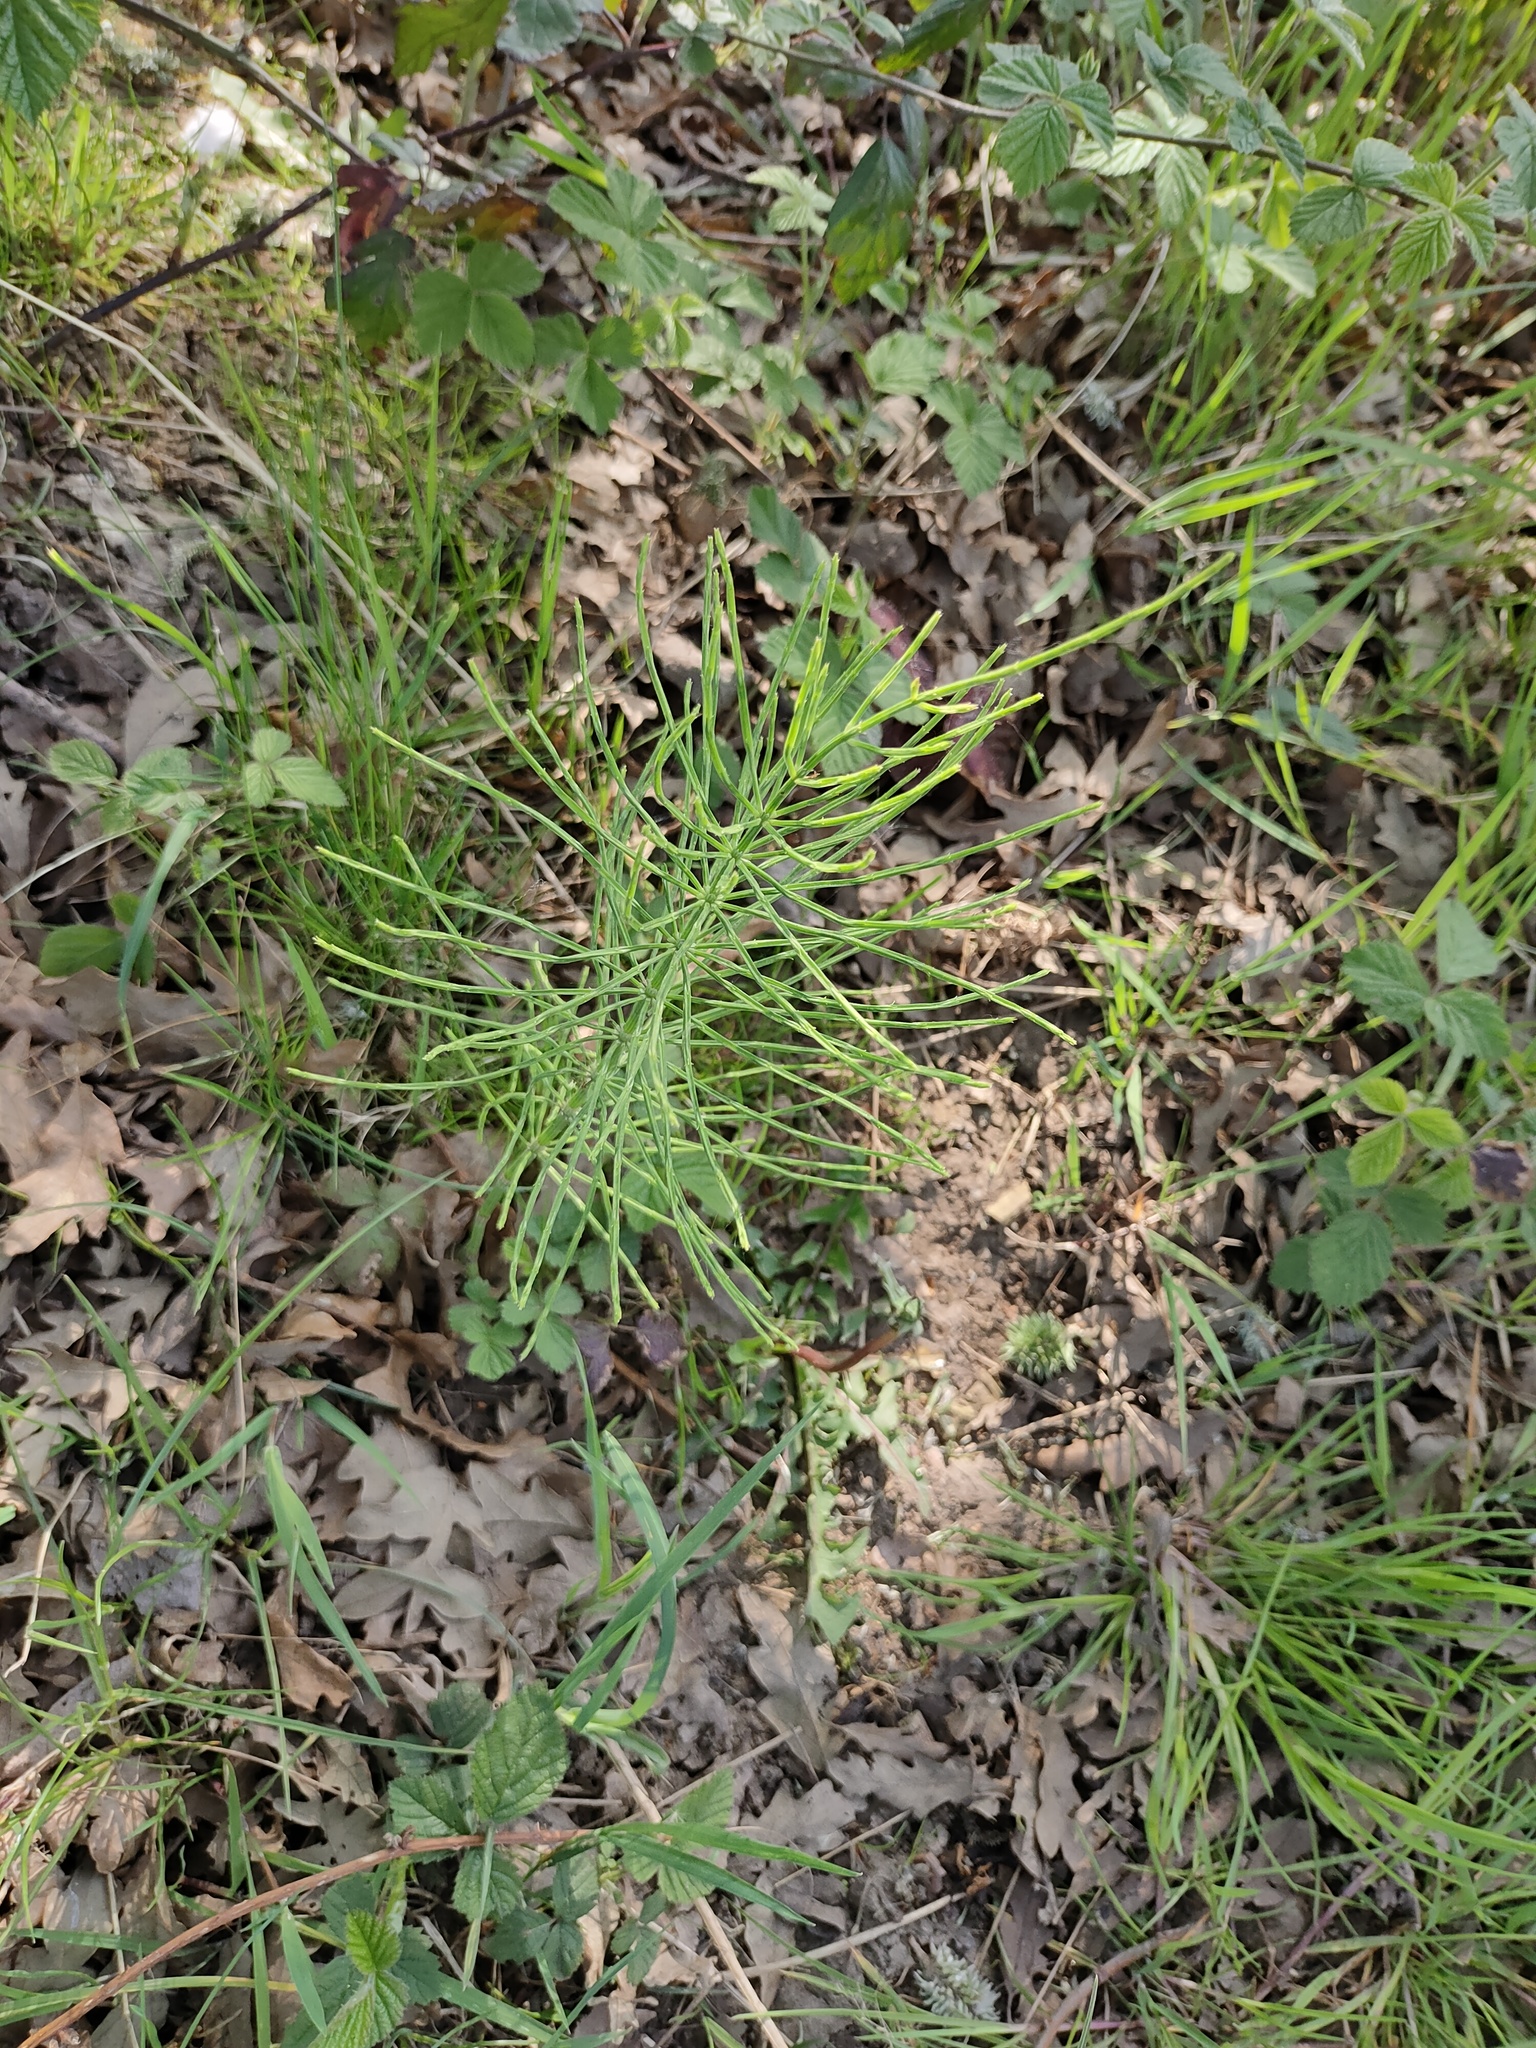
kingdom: Plantae
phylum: Tracheophyta
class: Polypodiopsida
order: Equisetales
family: Equisetaceae
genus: Equisetum
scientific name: Equisetum arvense
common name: Field horsetail
